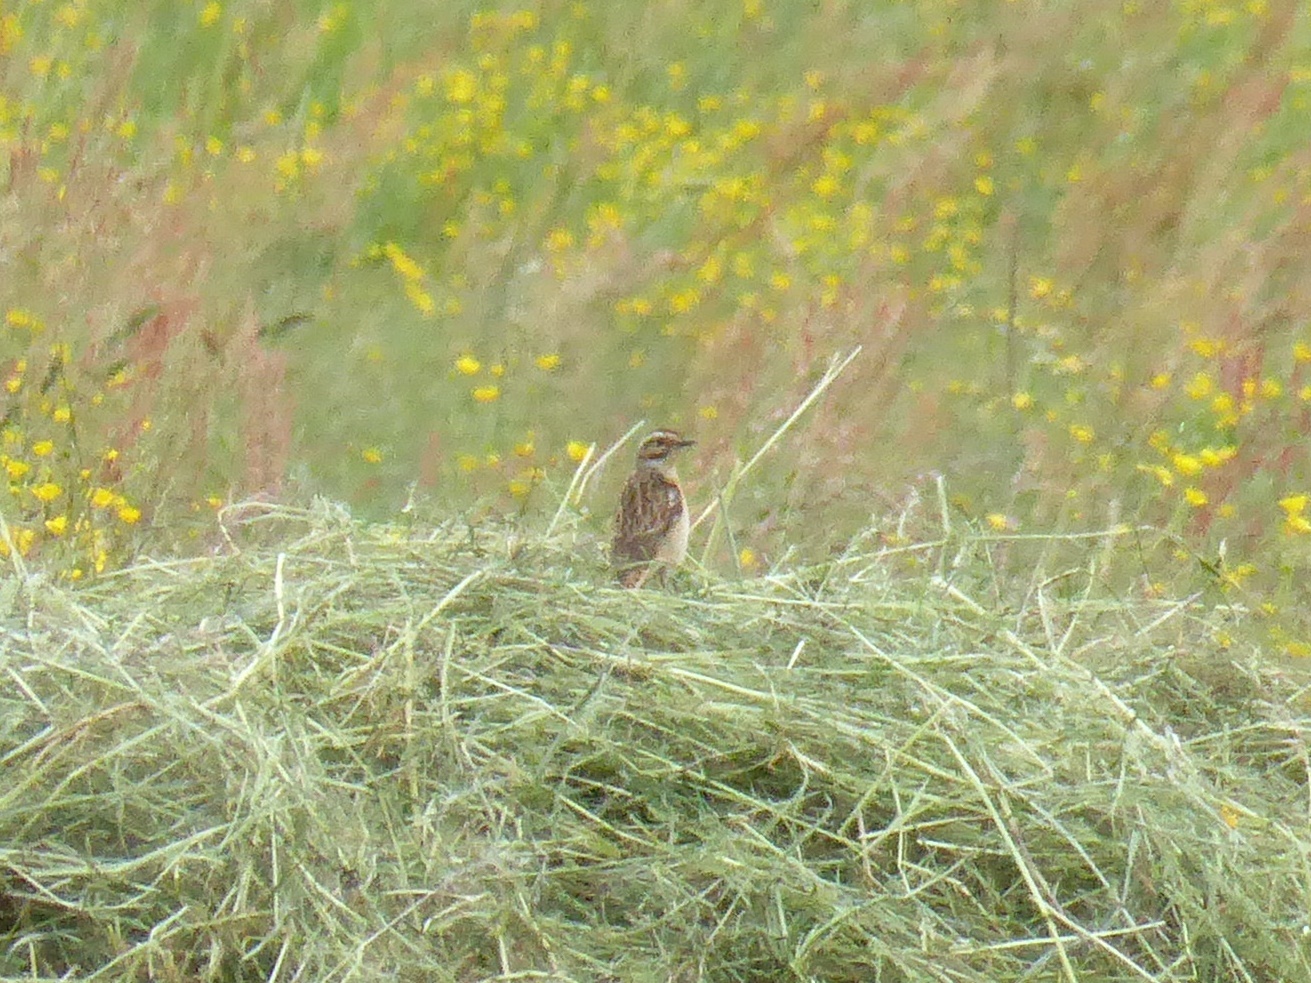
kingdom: Animalia
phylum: Chordata
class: Aves
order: Passeriformes
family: Muscicapidae
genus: Saxicola
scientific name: Saxicola rubetra
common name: Whinchat
